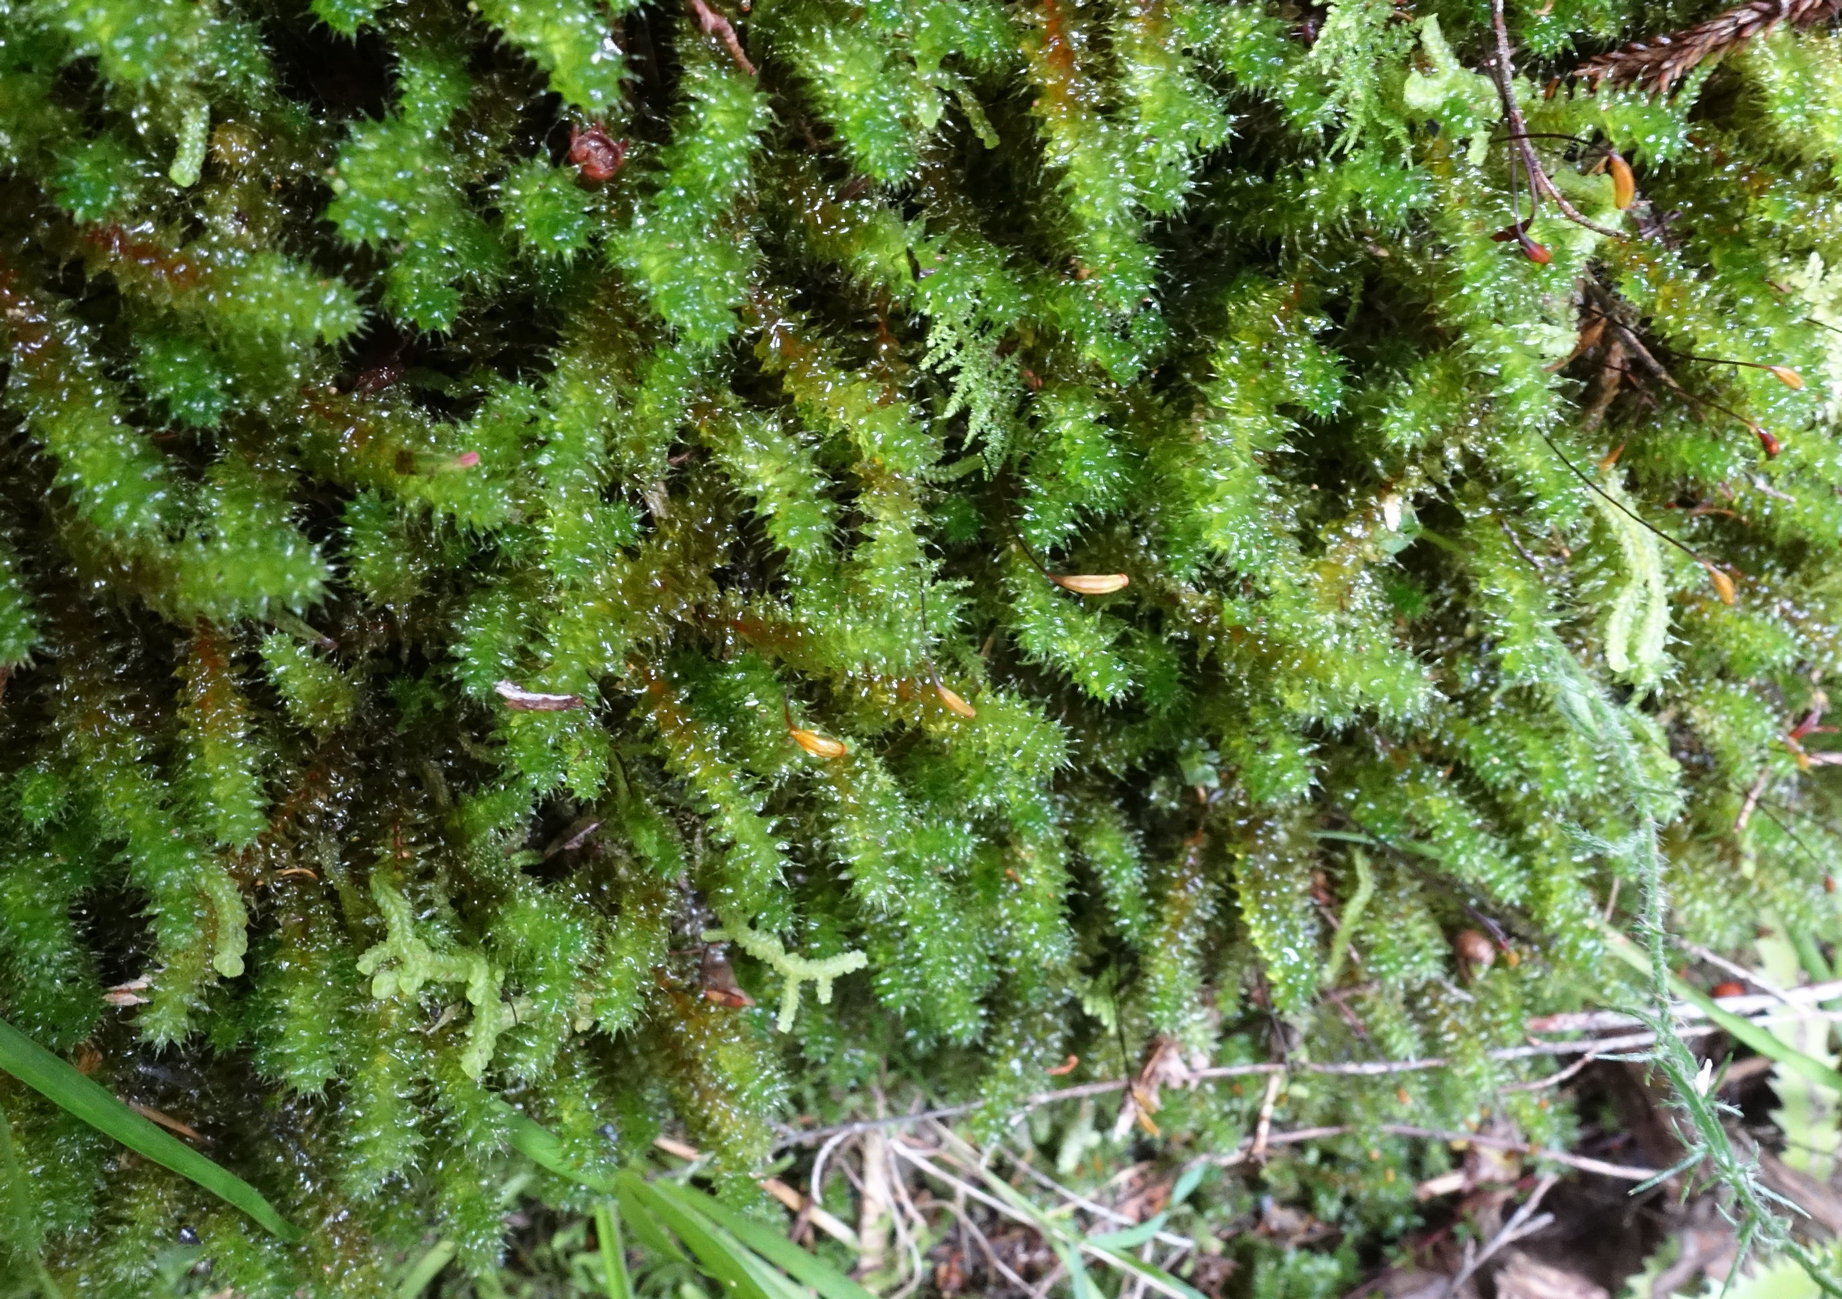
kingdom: Plantae
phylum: Bryophyta
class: Bryopsida
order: Ptychomniales
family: Ptychomniaceae
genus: Ptychomnion
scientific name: Ptychomnion aciculare
